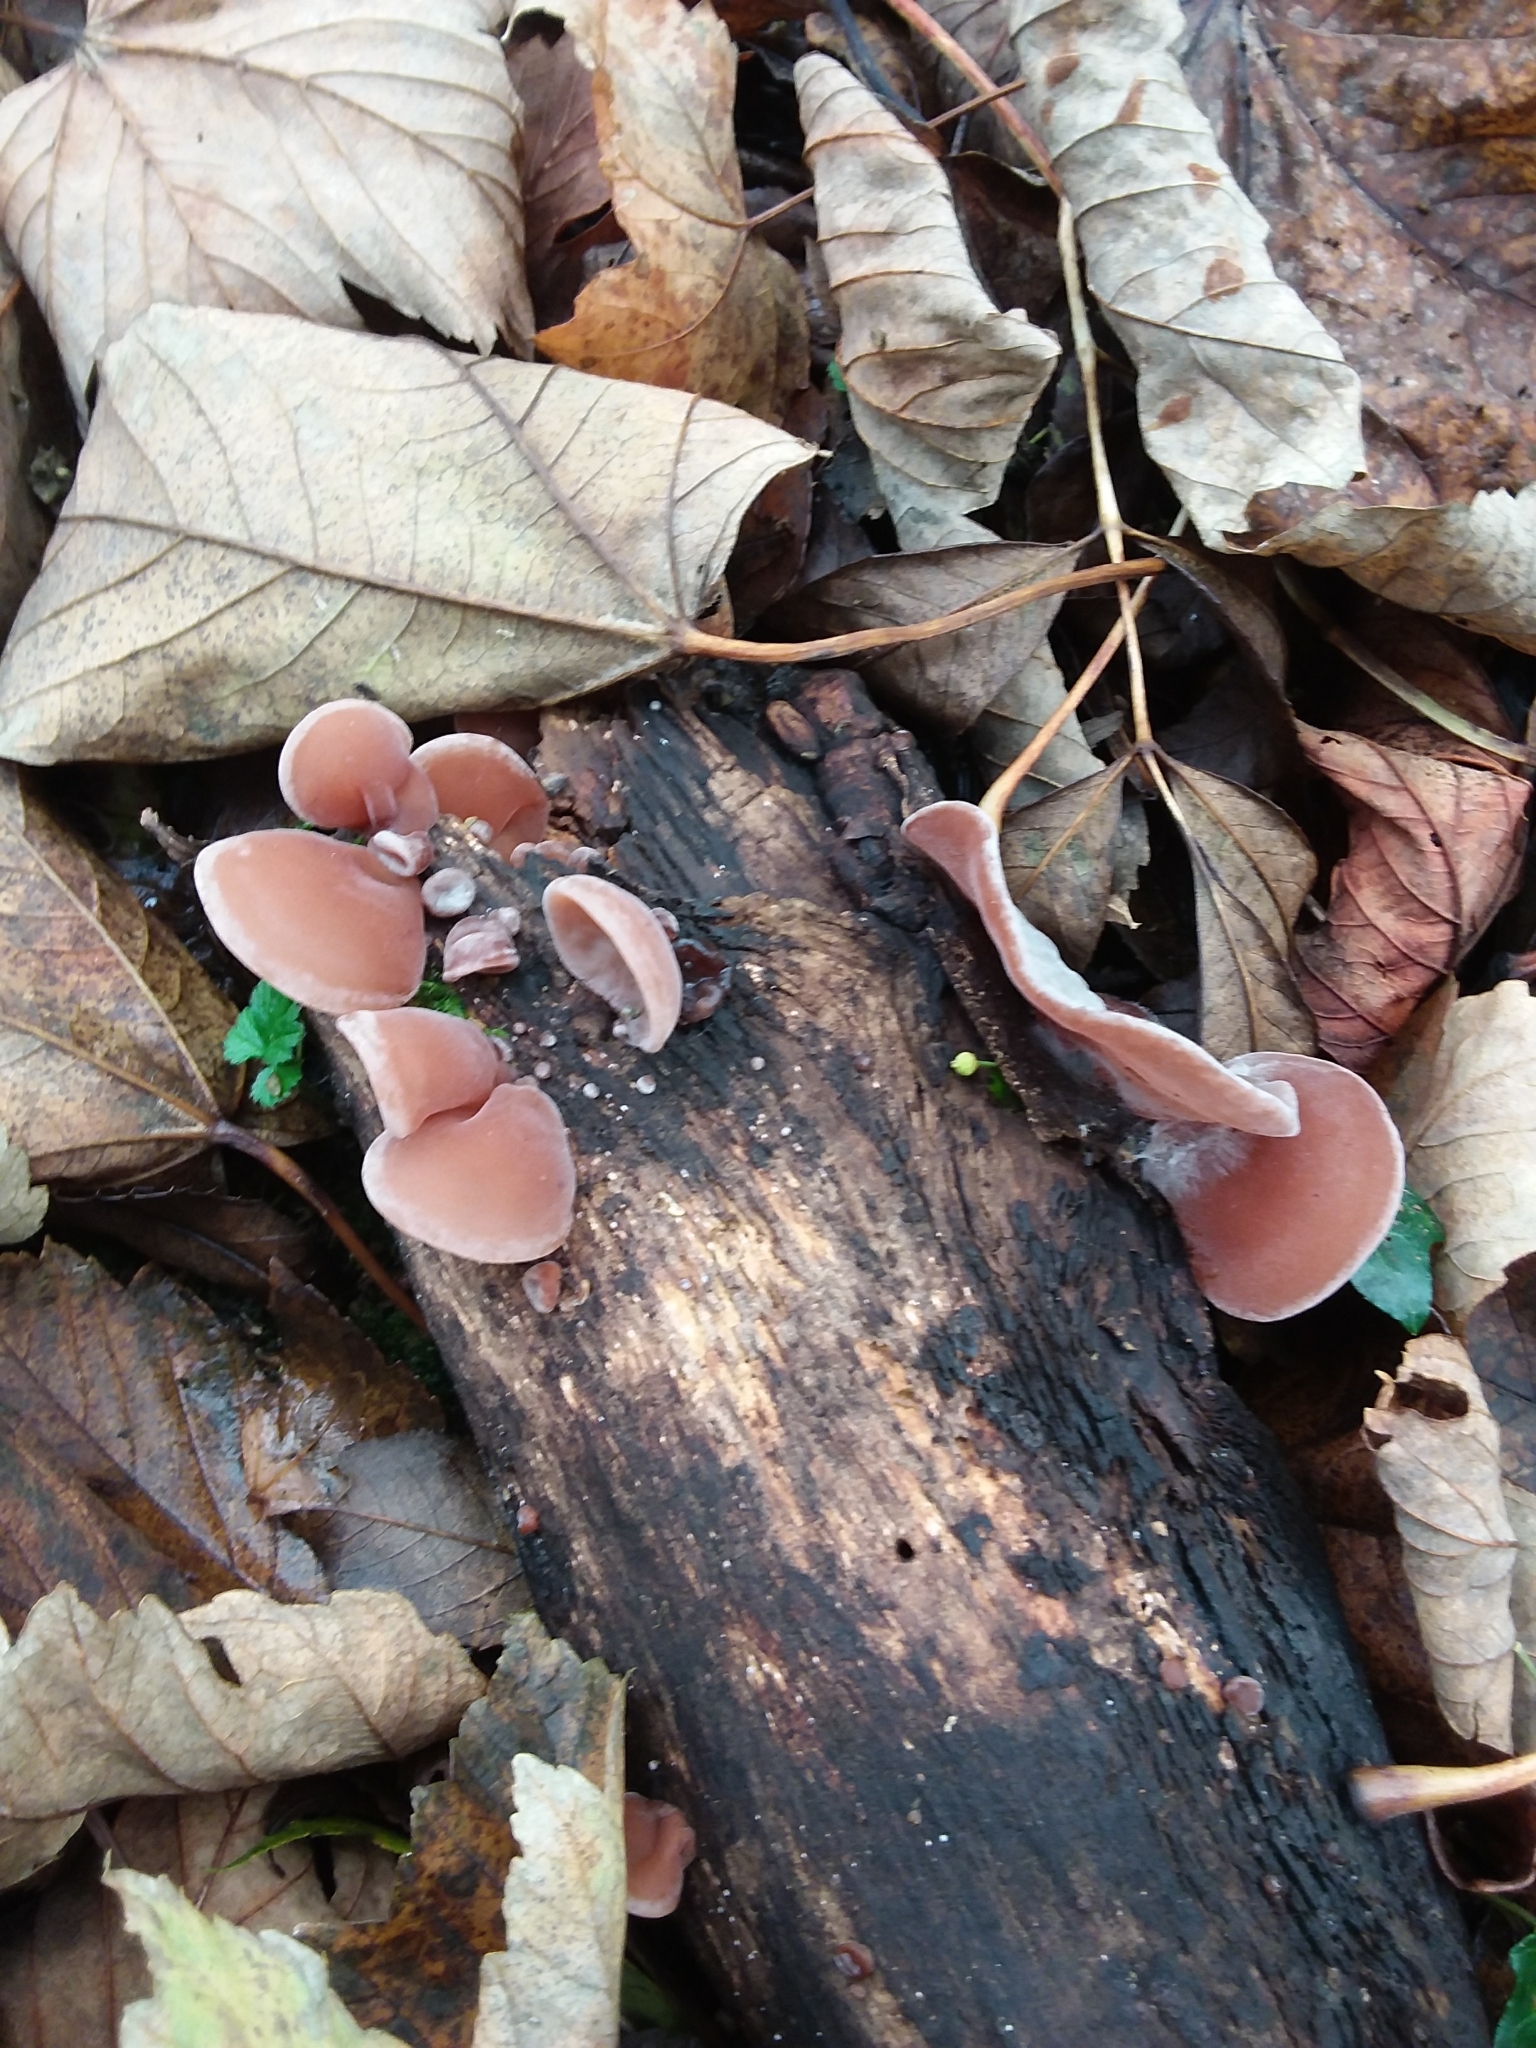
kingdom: Fungi
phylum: Basidiomycota
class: Agaricomycetes
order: Auriculariales
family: Auriculariaceae
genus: Auricularia
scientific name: Auricularia auricula-judae
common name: Jelly ear
